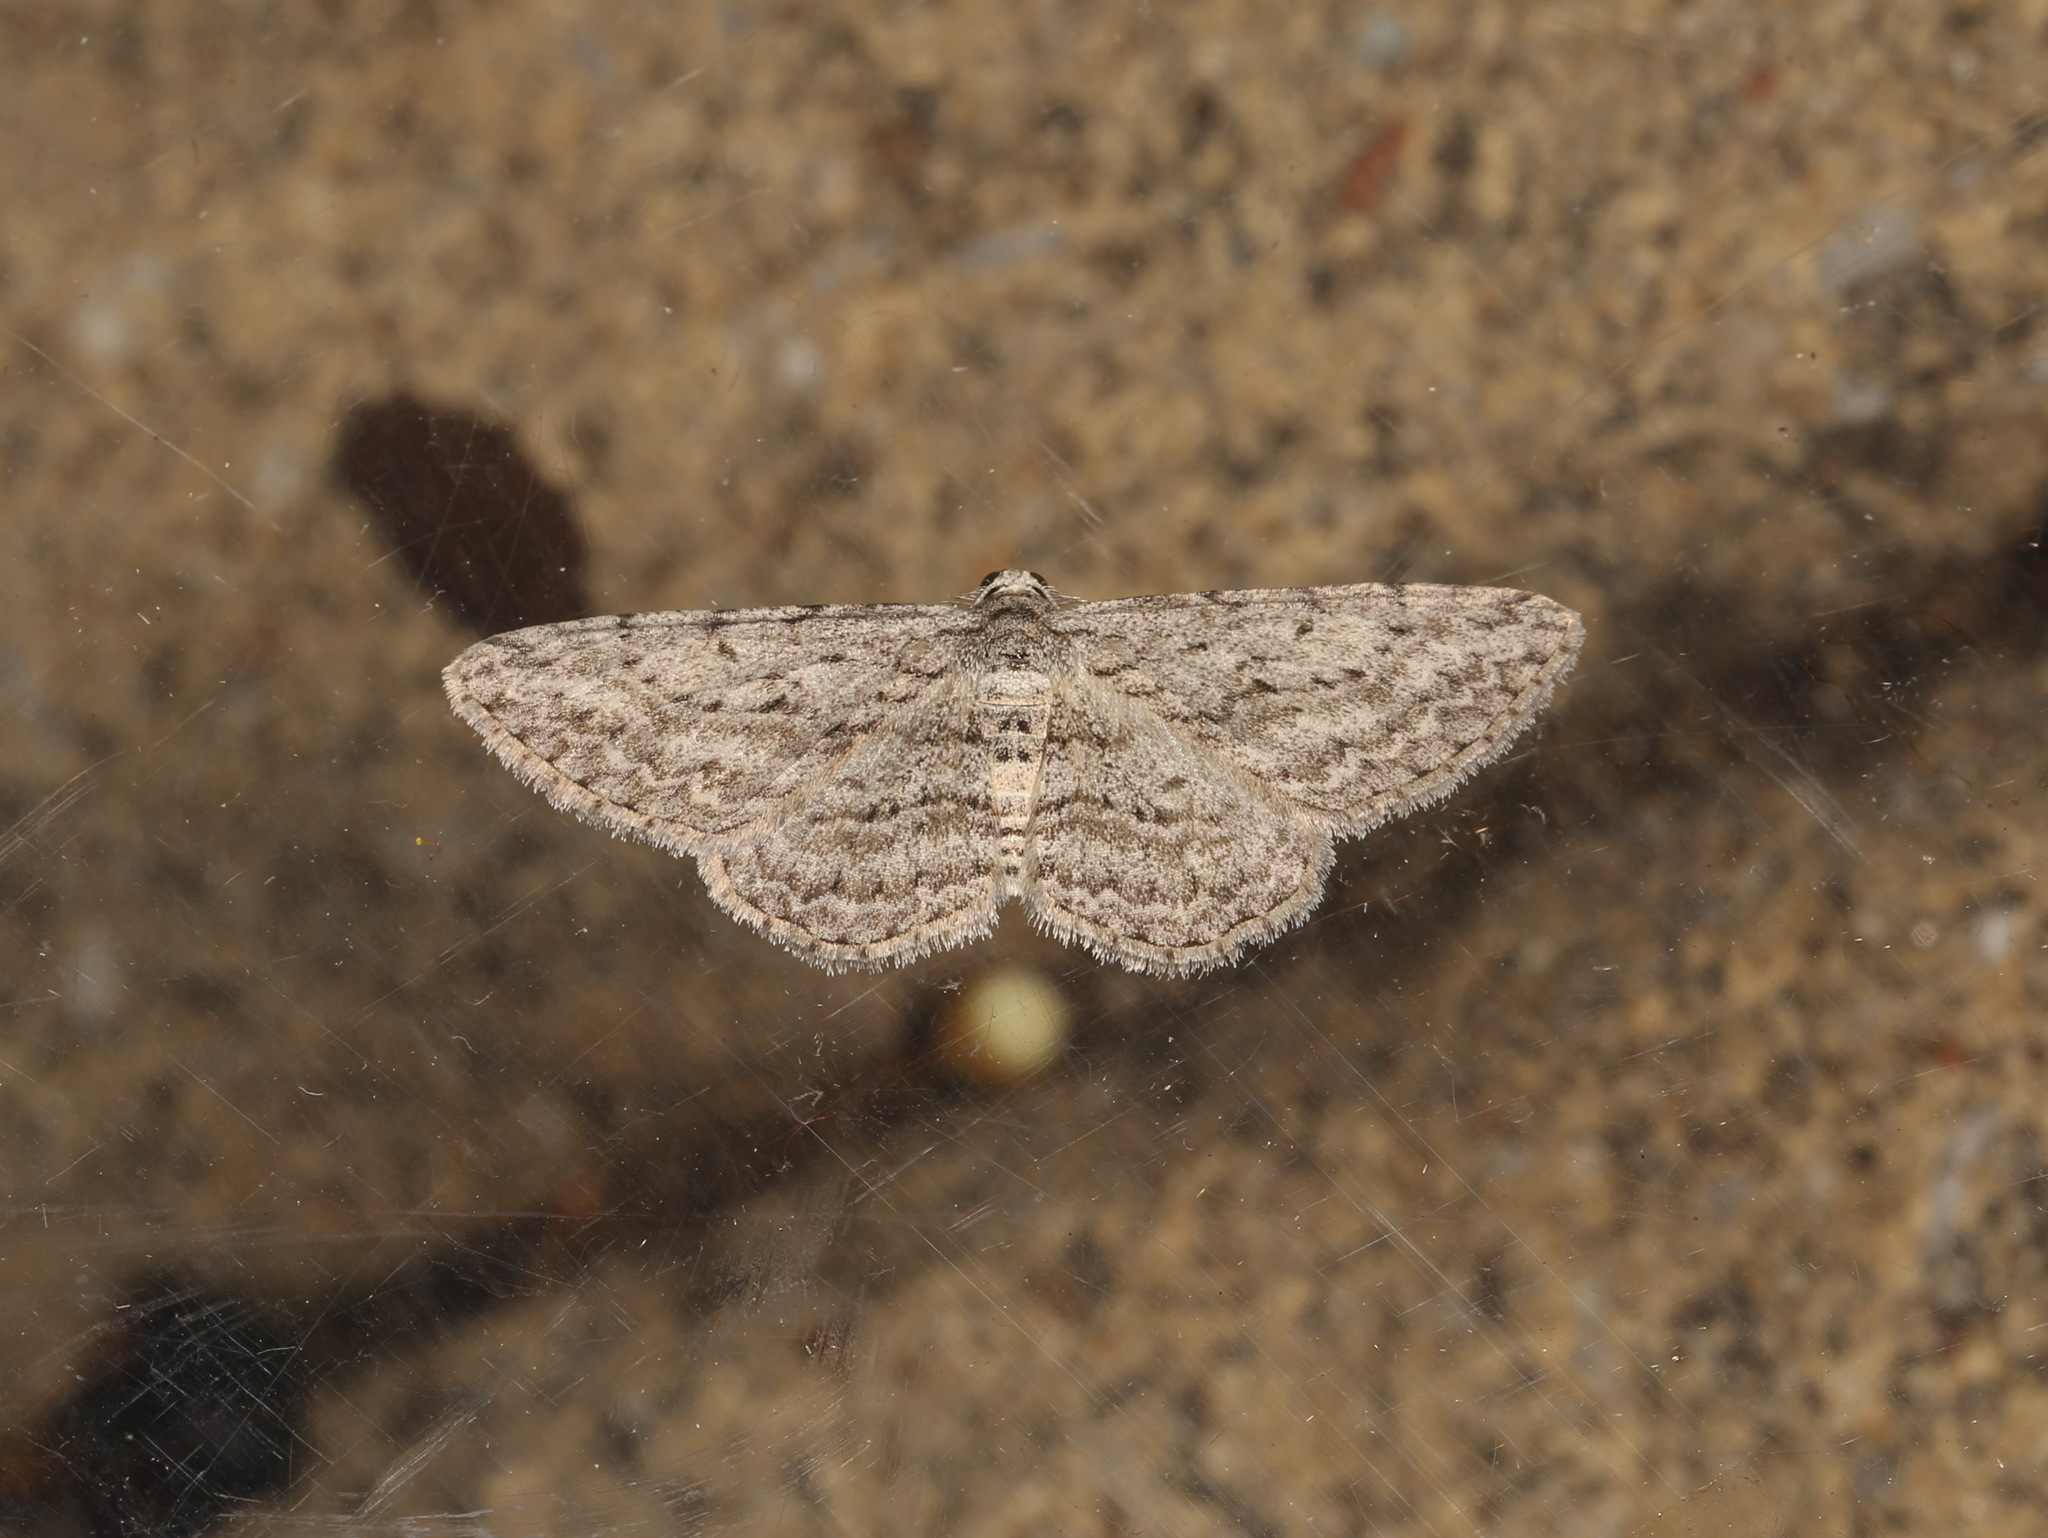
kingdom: Animalia
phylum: Arthropoda
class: Insecta
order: Lepidoptera
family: Geometridae
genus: Phelotis
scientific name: Phelotis cognata
